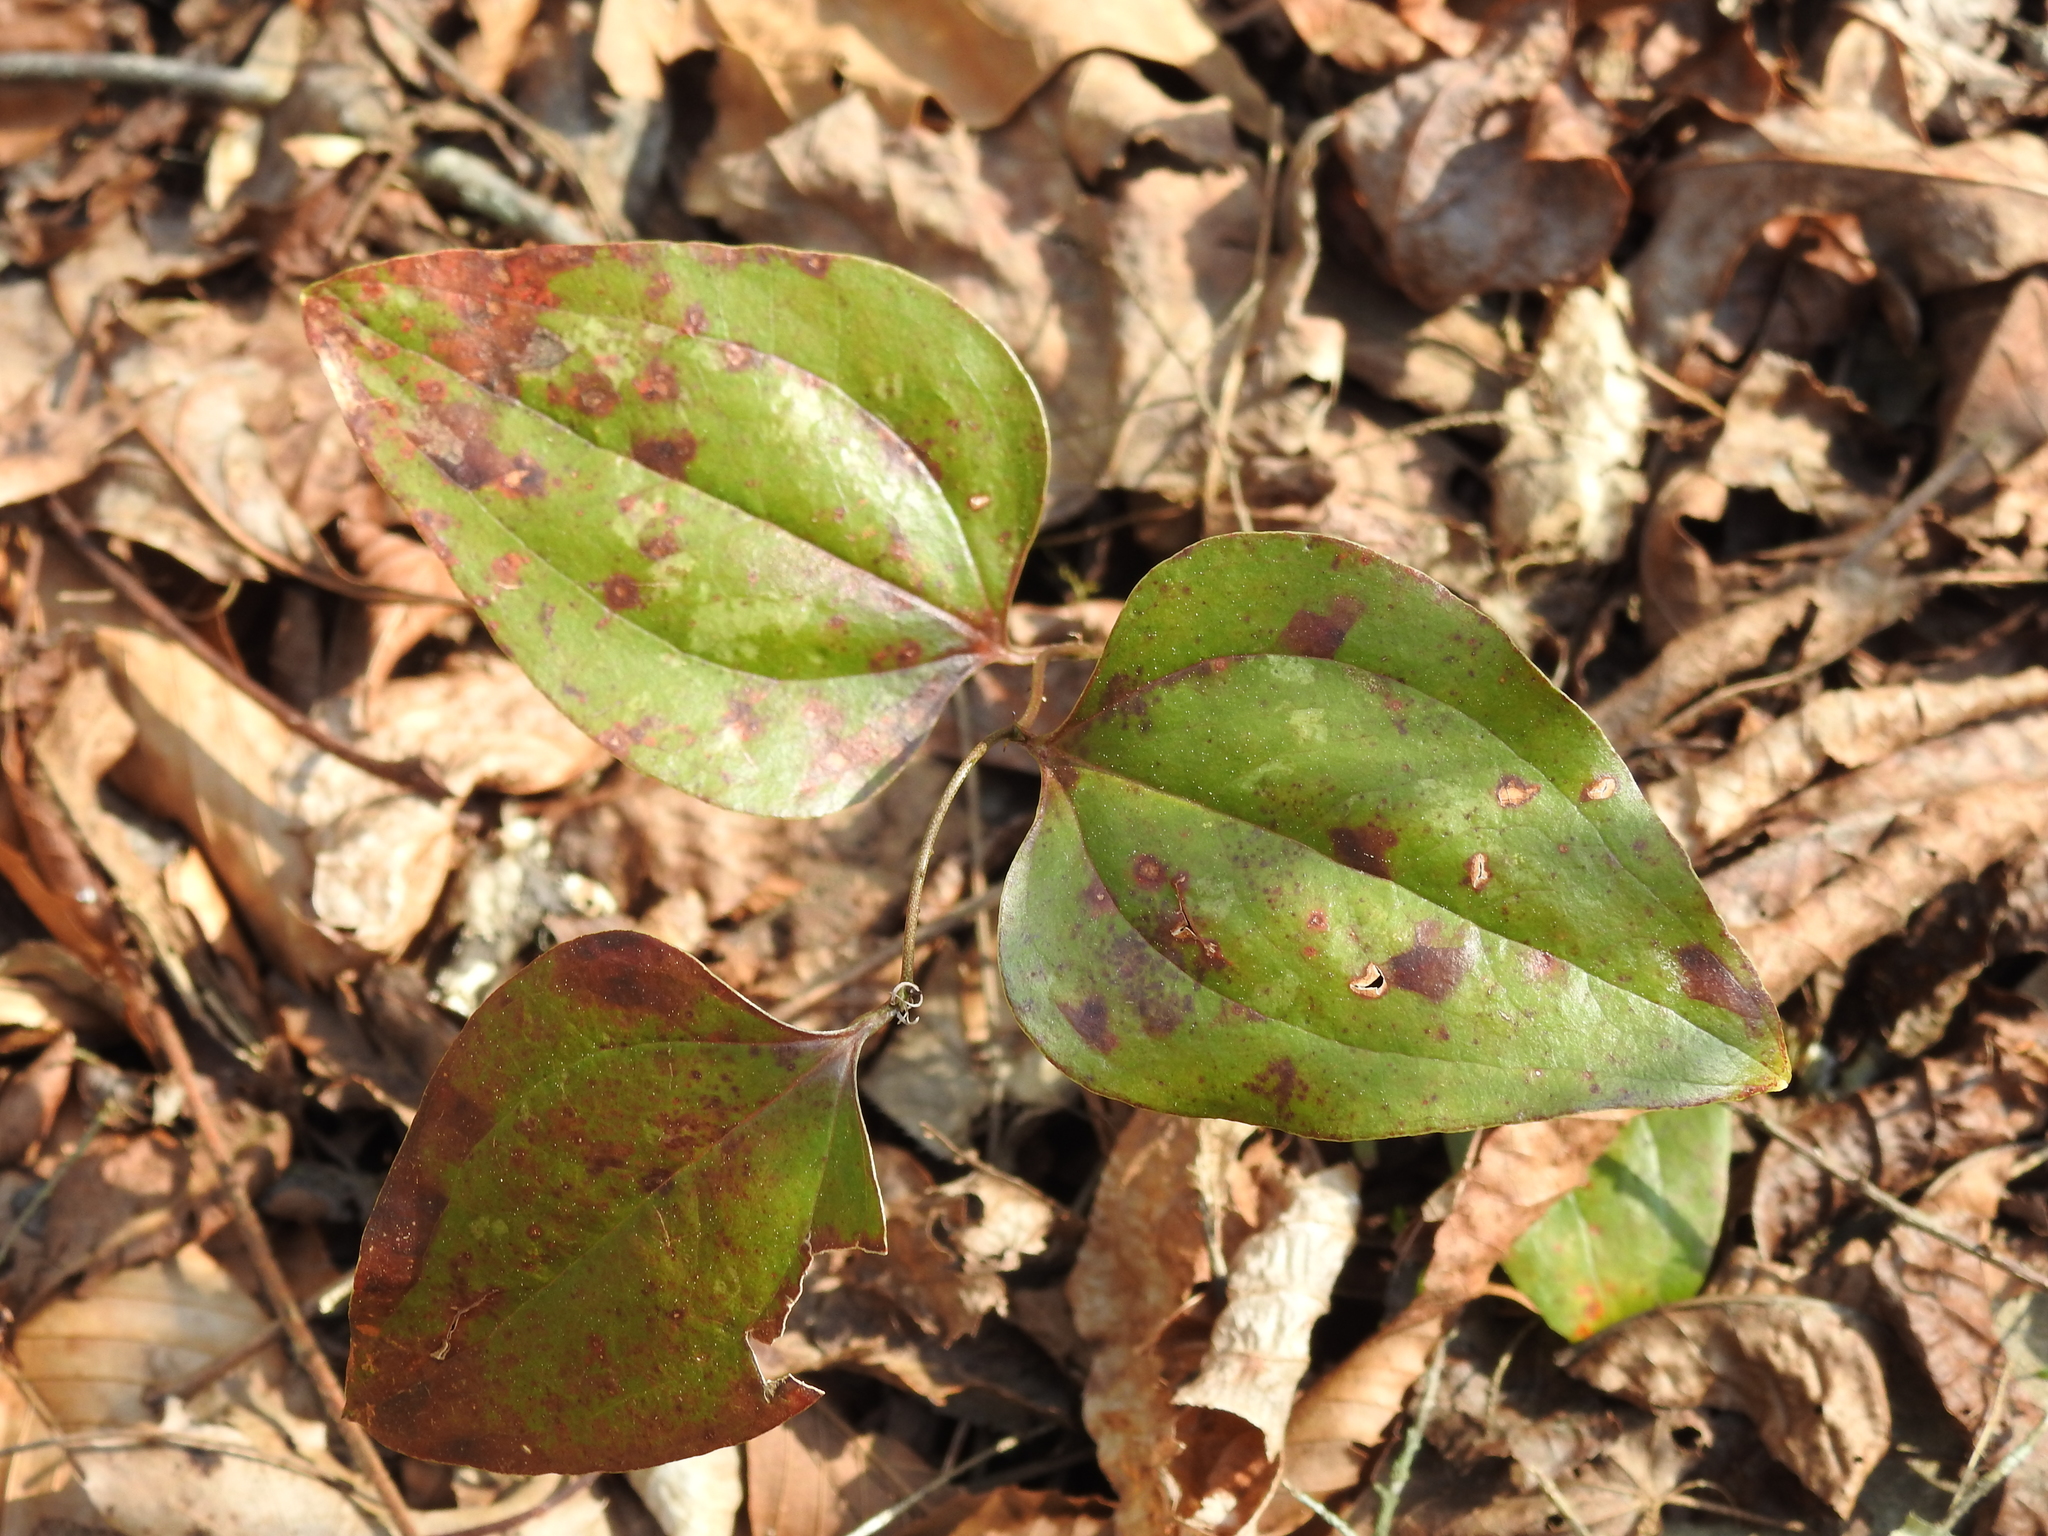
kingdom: Plantae
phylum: Tracheophyta
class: Liliopsida
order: Liliales
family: Smilacaceae
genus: Smilax
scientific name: Smilax glauca
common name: Cat greenbrier
